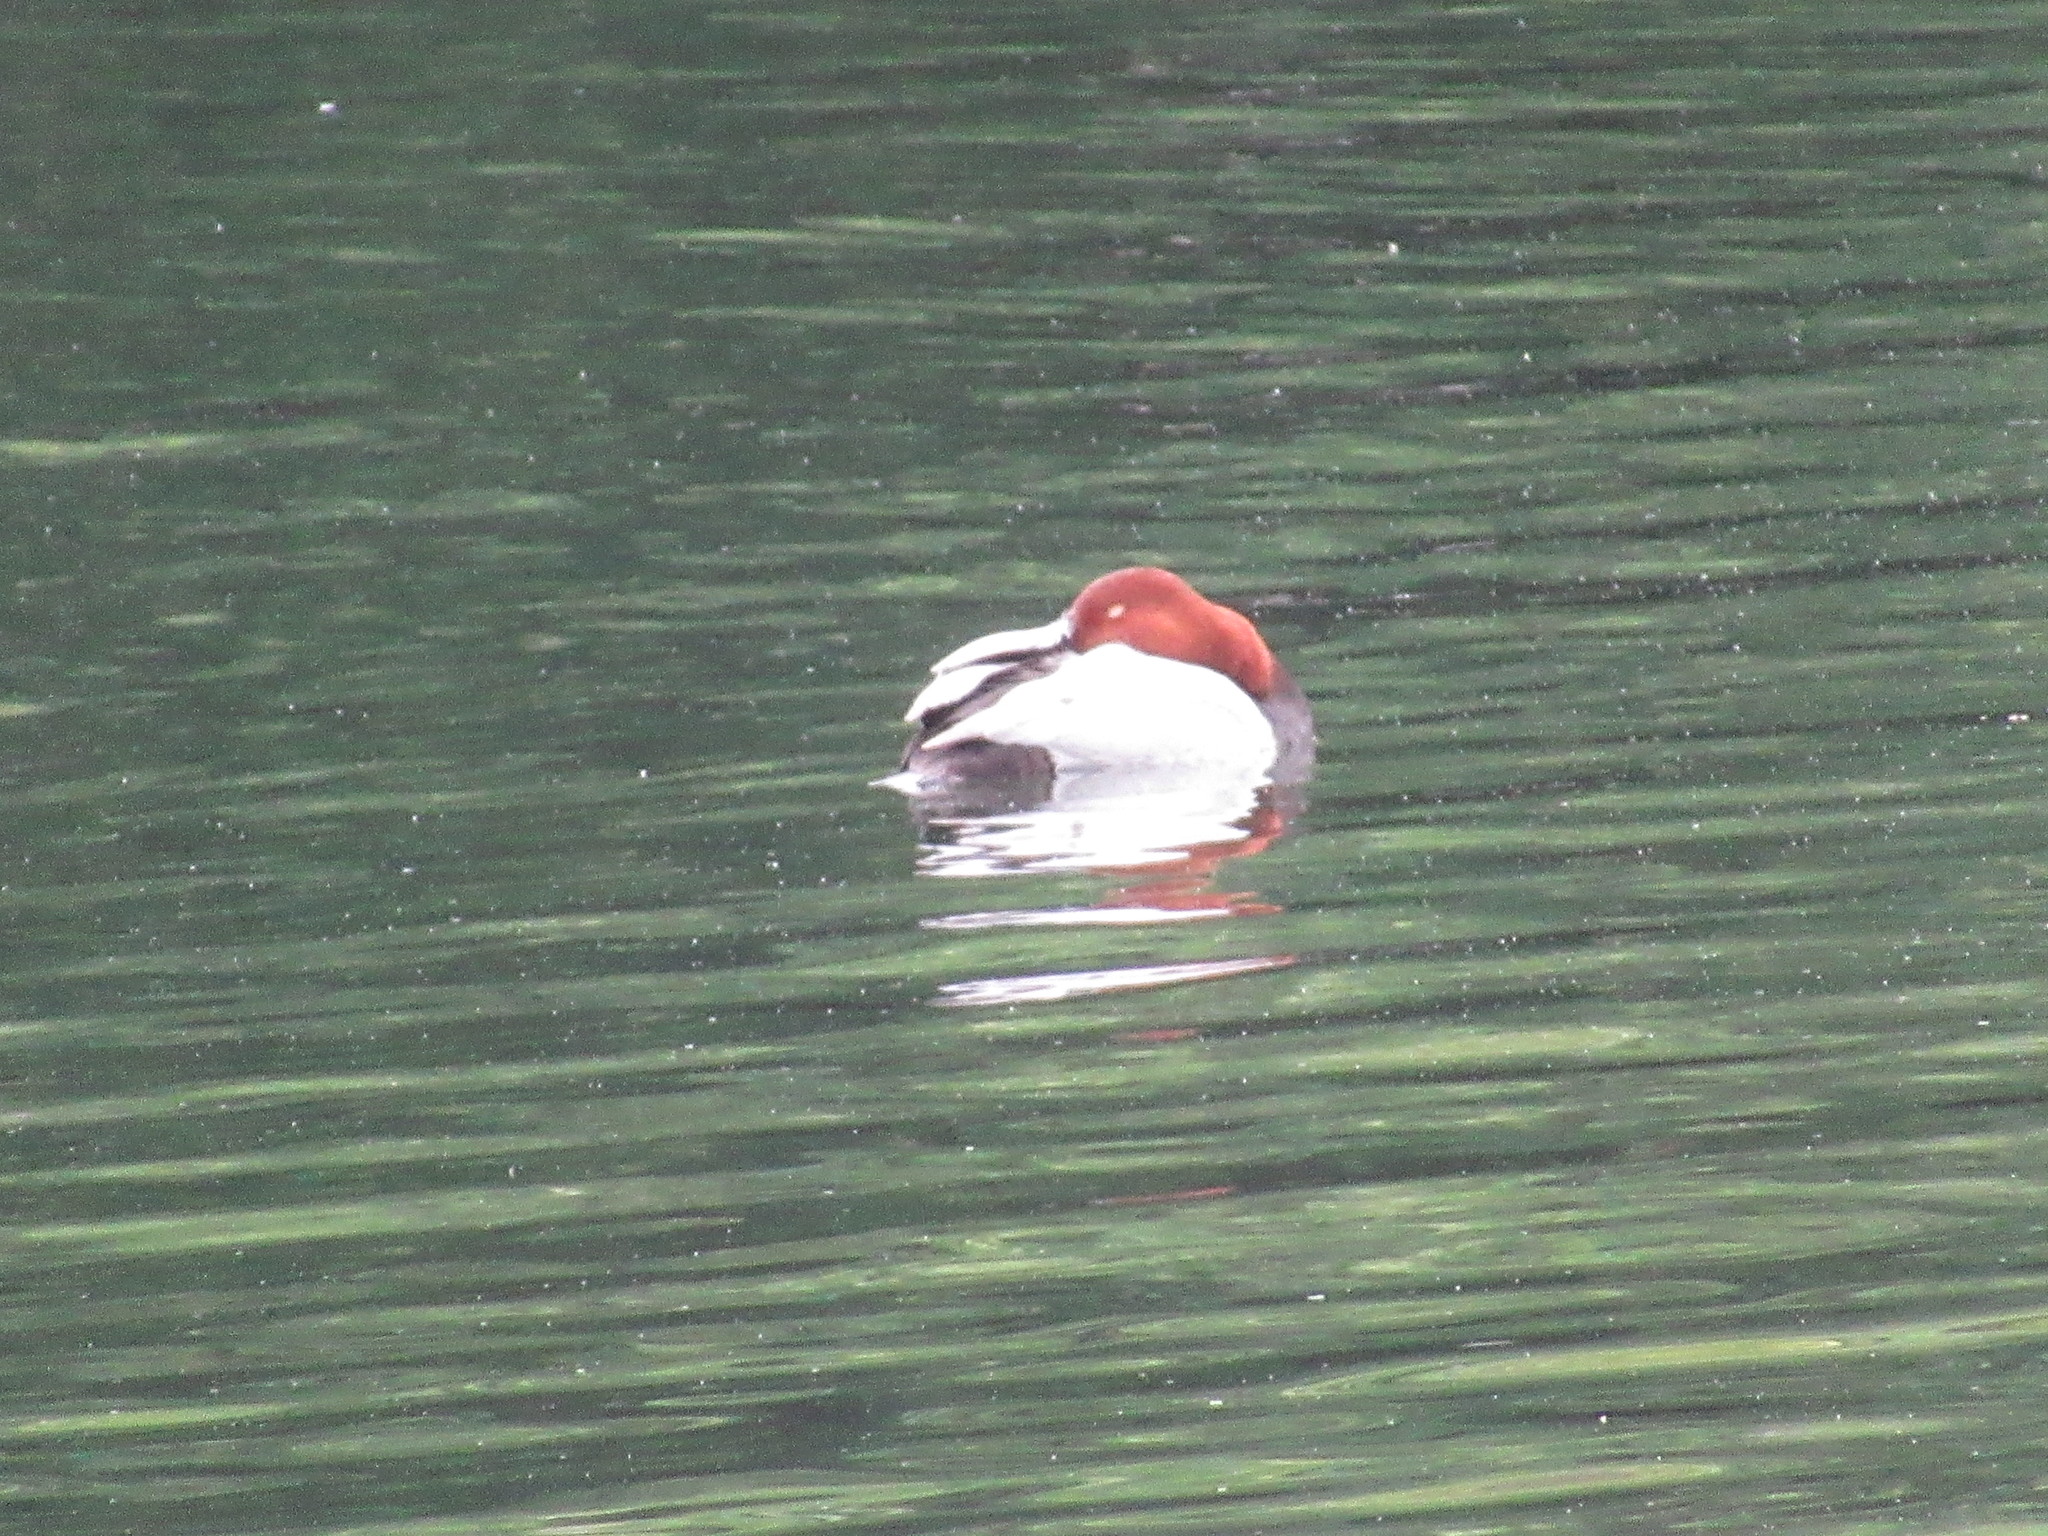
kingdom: Animalia
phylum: Chordata
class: Aves
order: Anseriformes
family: Anatidae
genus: Aythya
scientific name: Aythya ferina
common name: Common pochard
